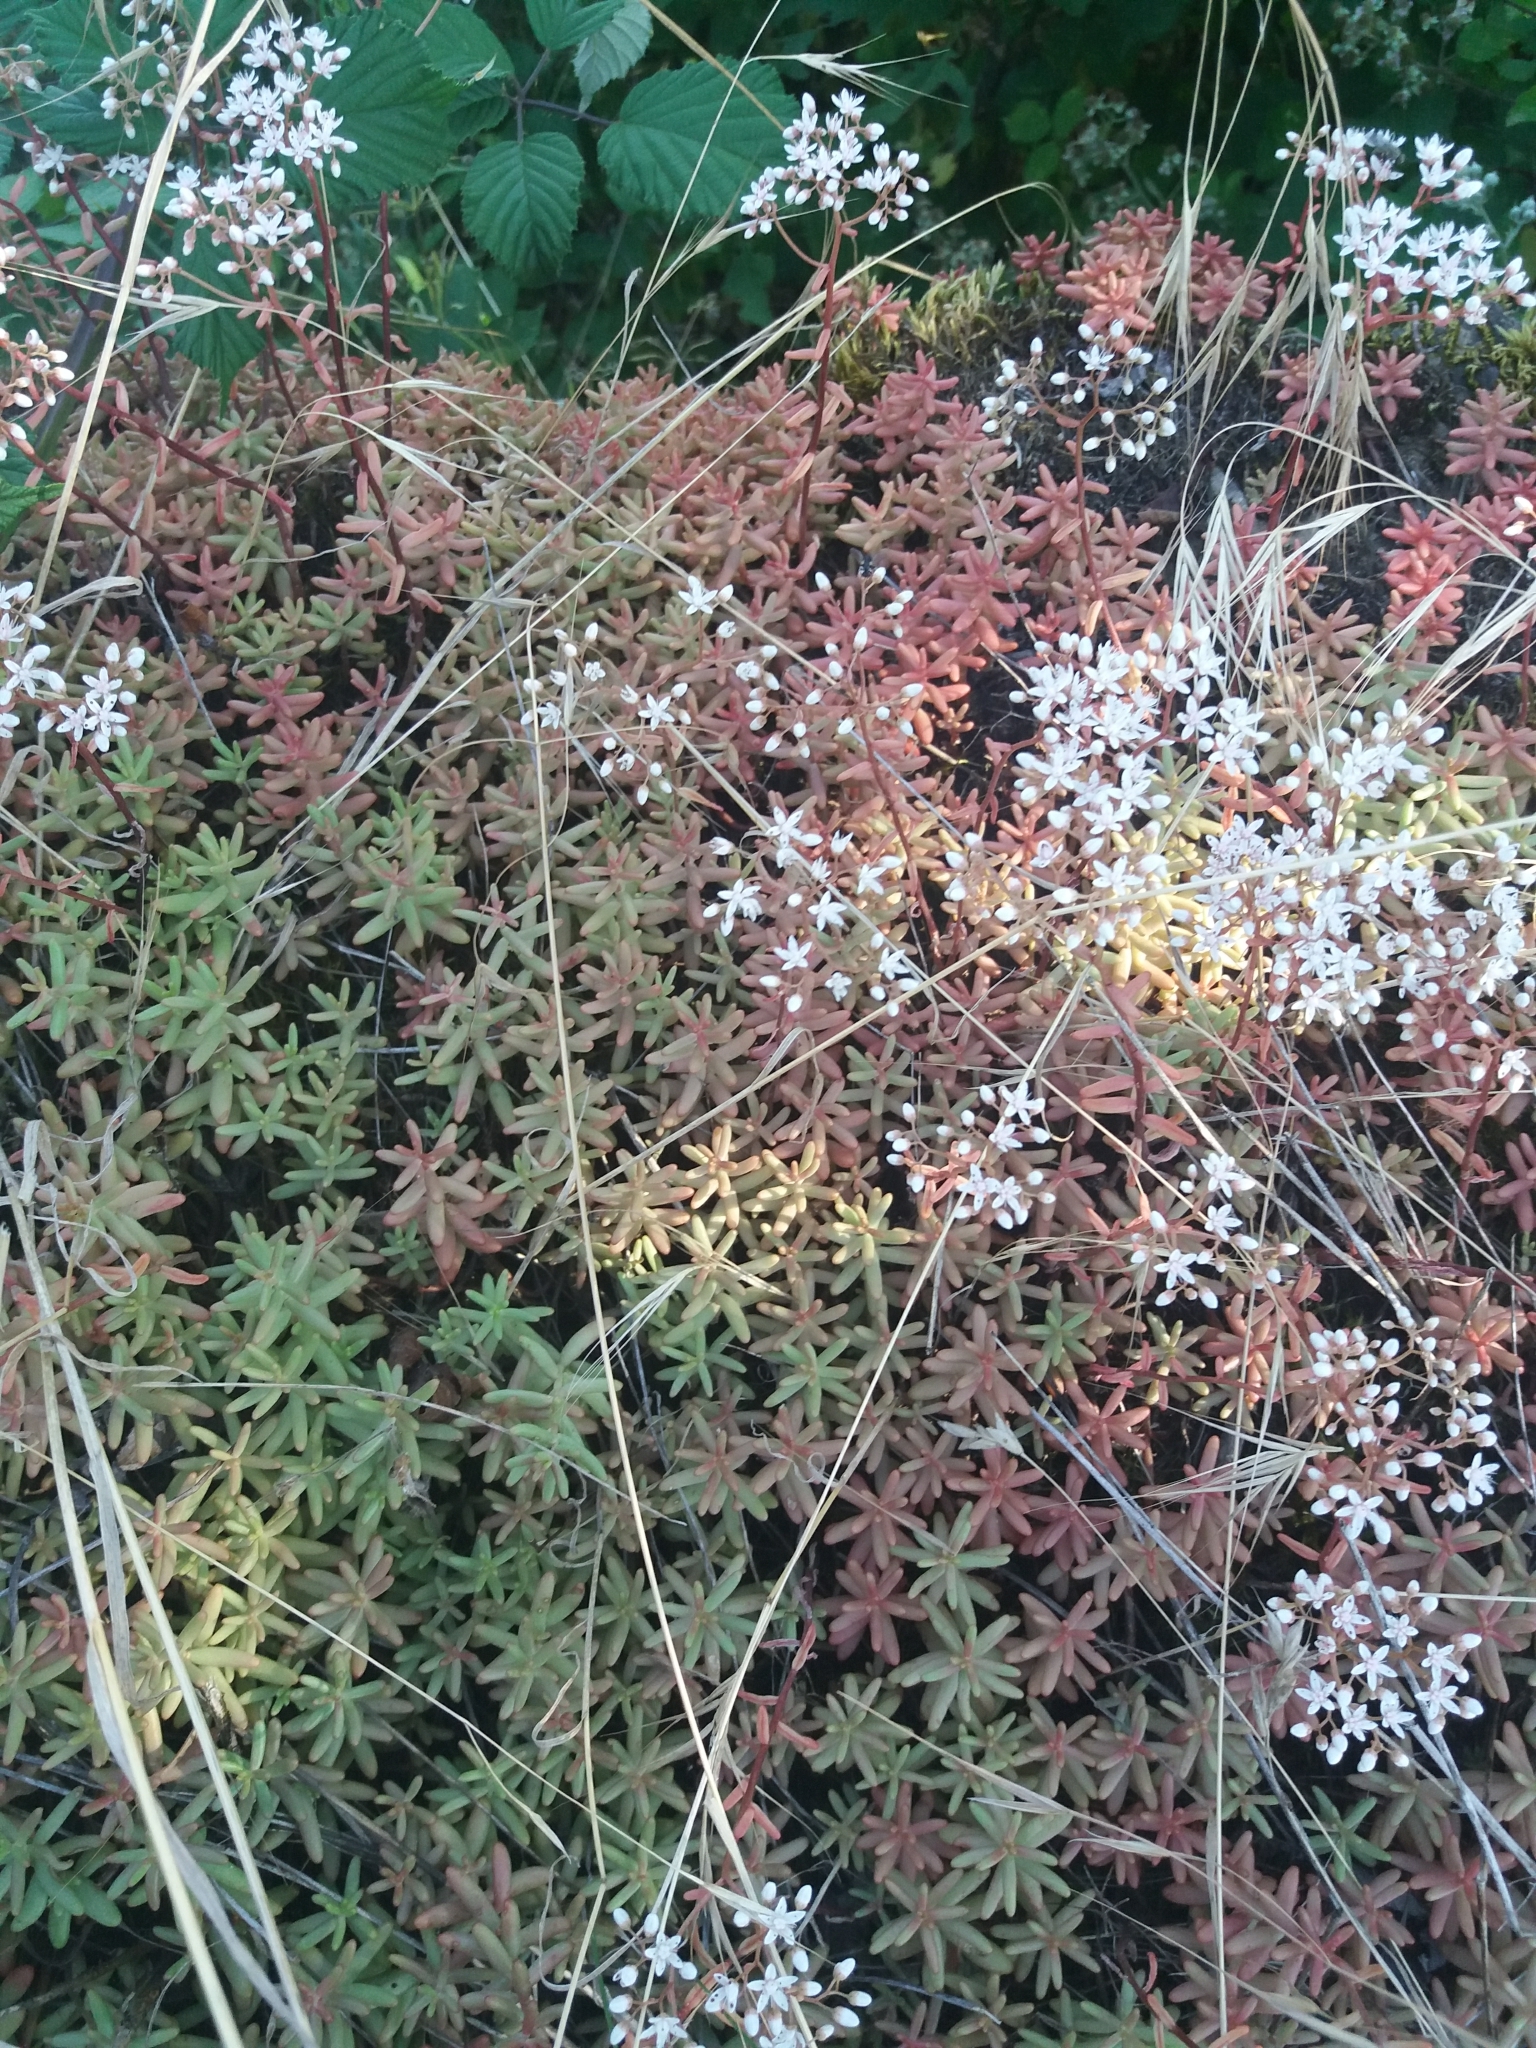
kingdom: Plantae
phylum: Tracheophyta
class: Magnoliopsida
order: Saxifragales
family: Crassulaceae
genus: Sedum
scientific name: Sedum album
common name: White stonecrop
